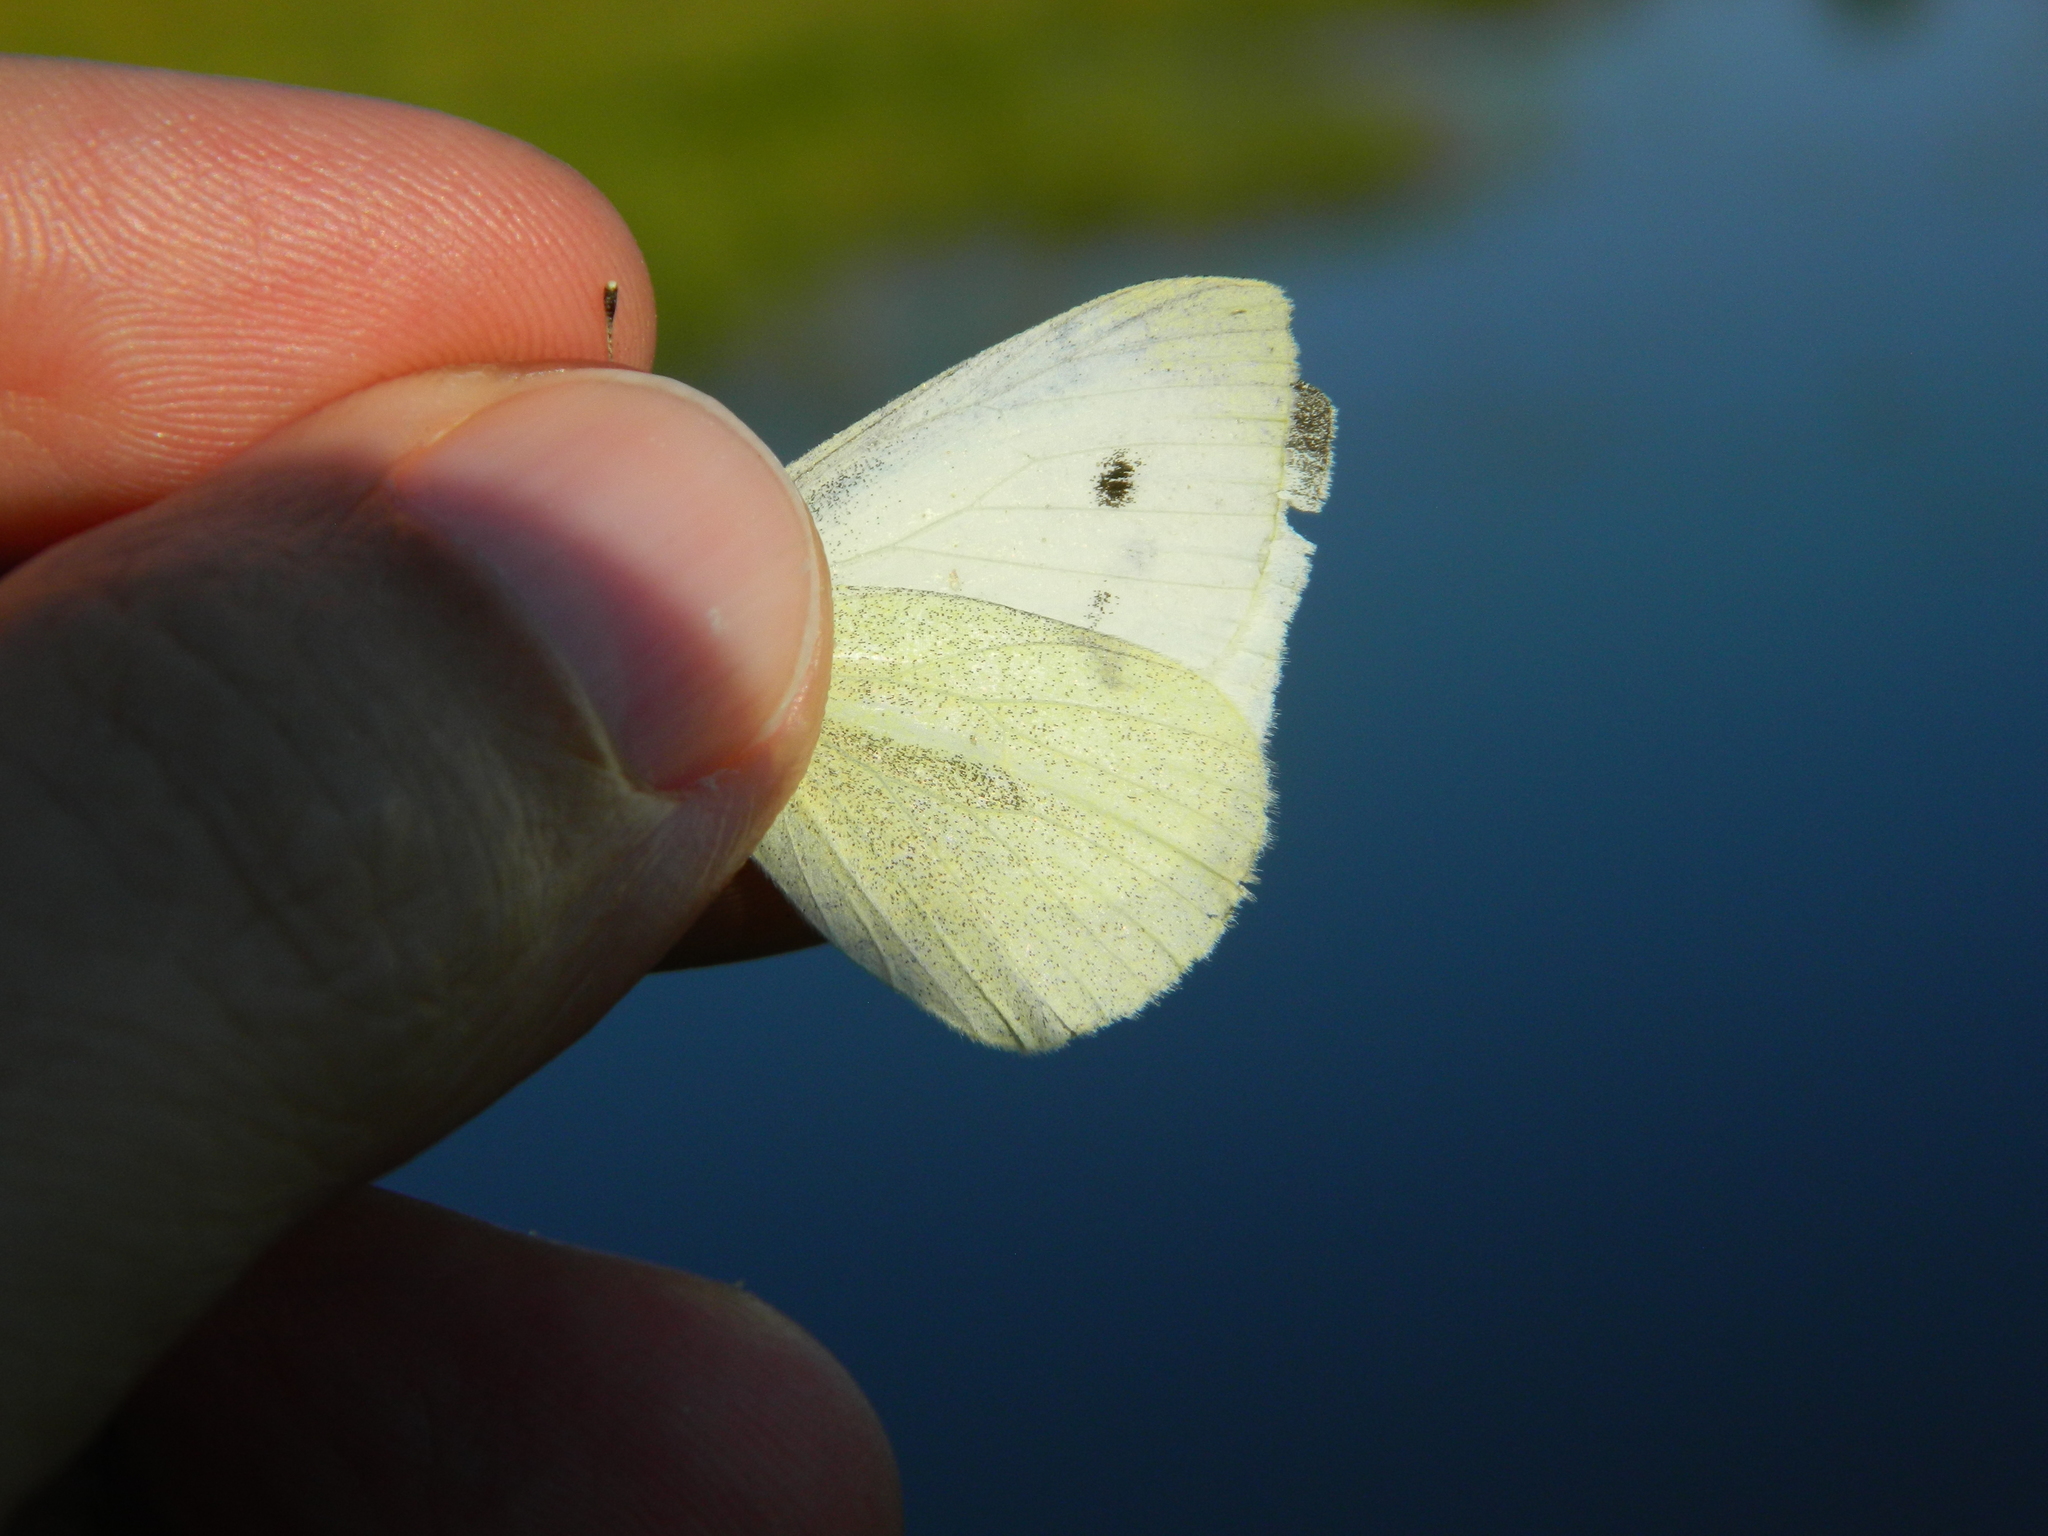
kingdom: Animalia
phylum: Arthropoda
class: Insecta
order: Lepidoptera
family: Pieridae
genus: Pieris
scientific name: Pieris rapae
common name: Small white
